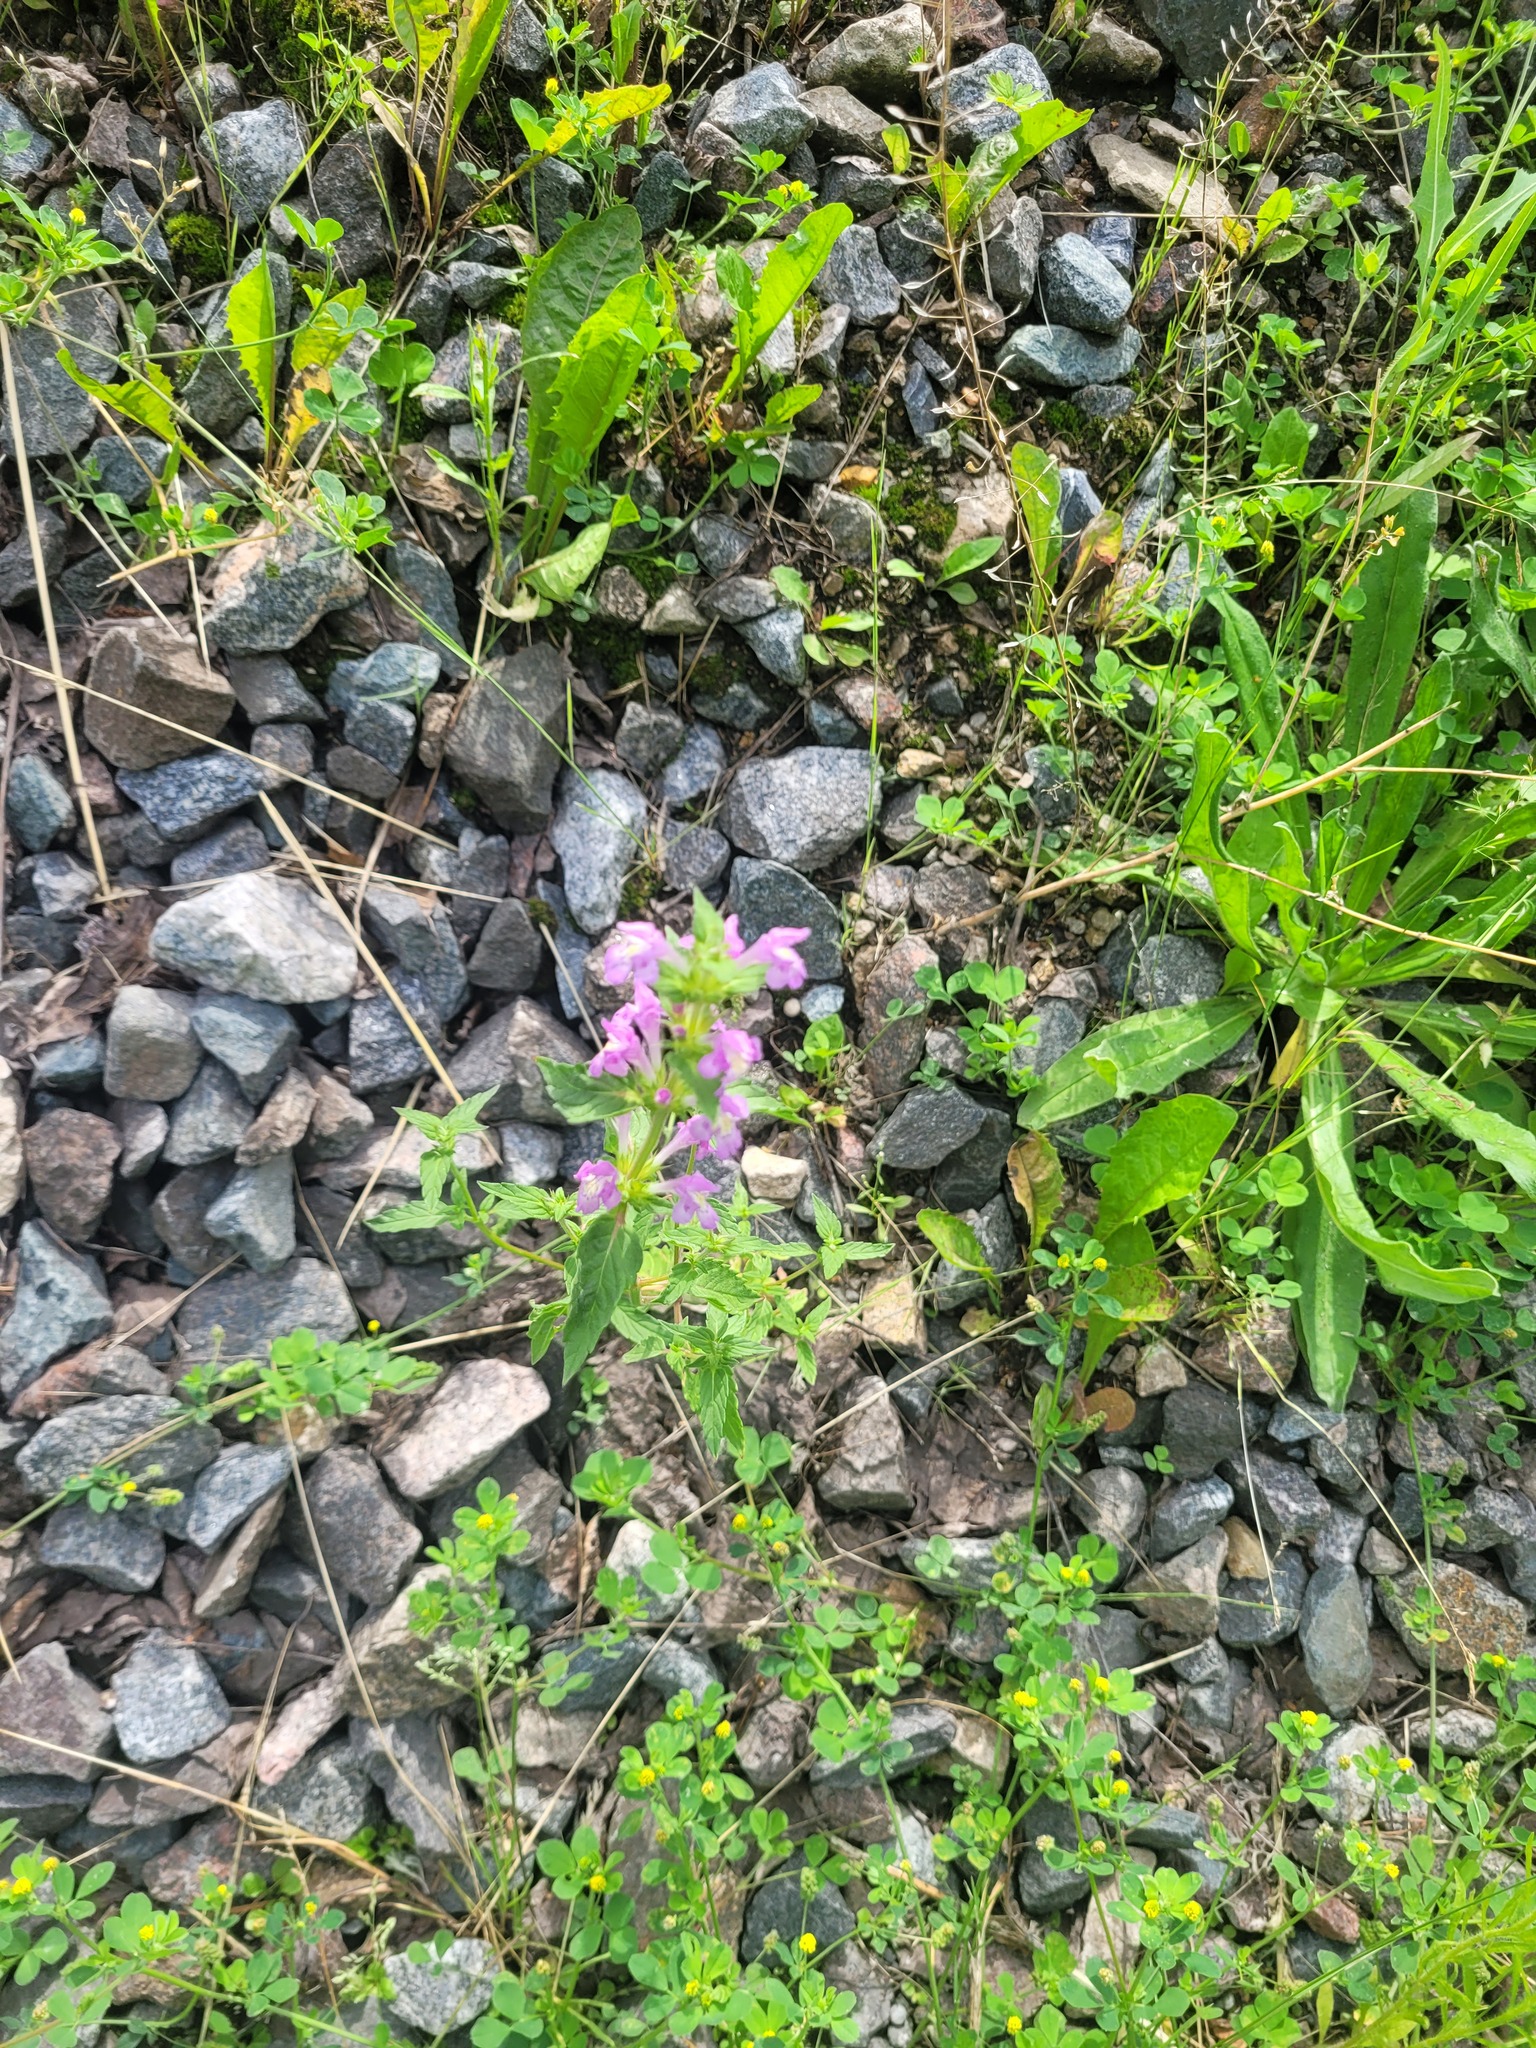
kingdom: Plantae
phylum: Tracheophyta
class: Magnoliopsida
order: Lamiales
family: Lamiaceae
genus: Galeopsis
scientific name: Galeopsis ladanum
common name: Broad-leaved hemp-nettle
